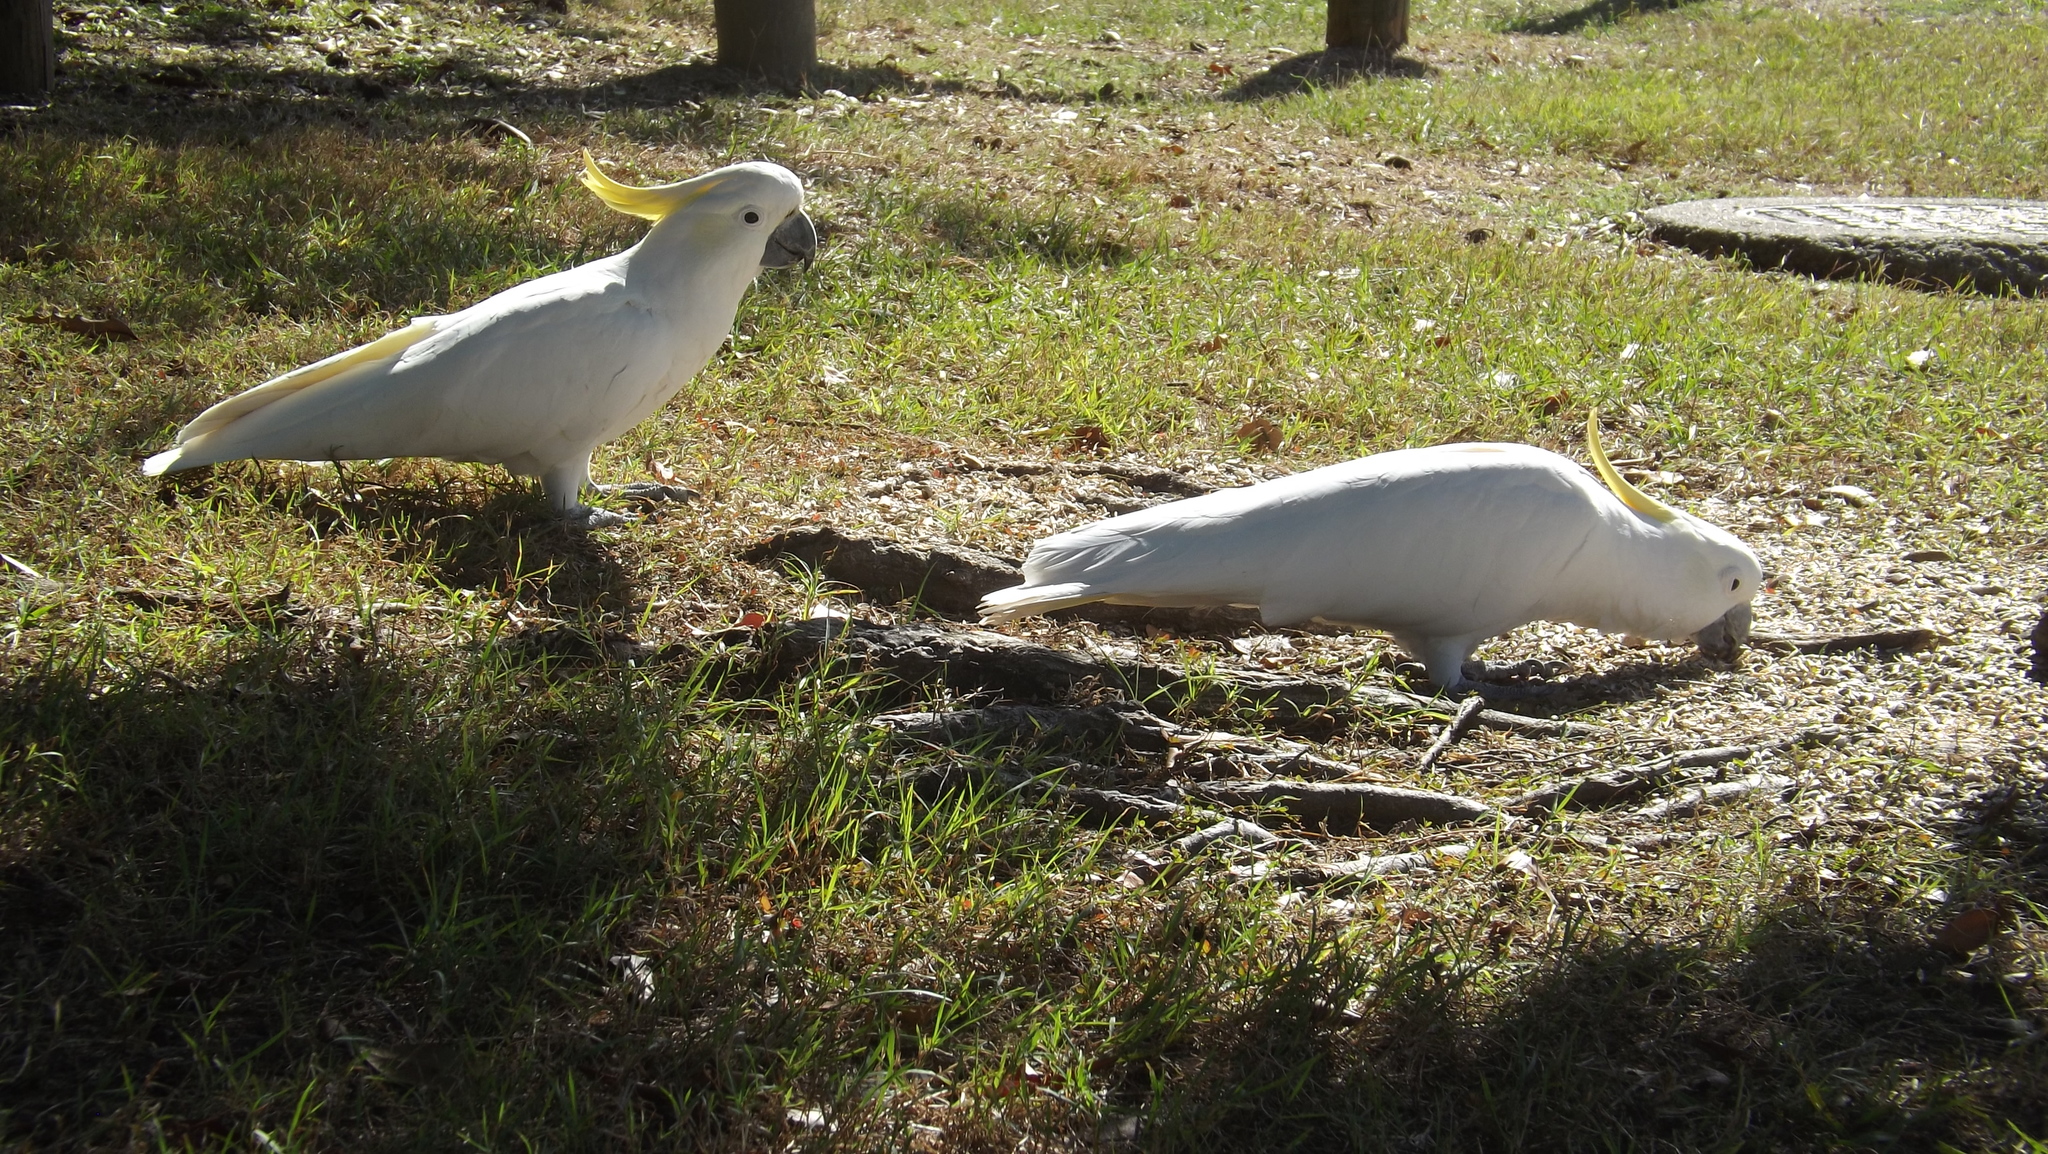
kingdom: Animalia
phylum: Chordata
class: Aves
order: Psittaciformes
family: Psittacidae
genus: Cacatua
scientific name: Cacatua galerita
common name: Sulphur-crested cockatoo
